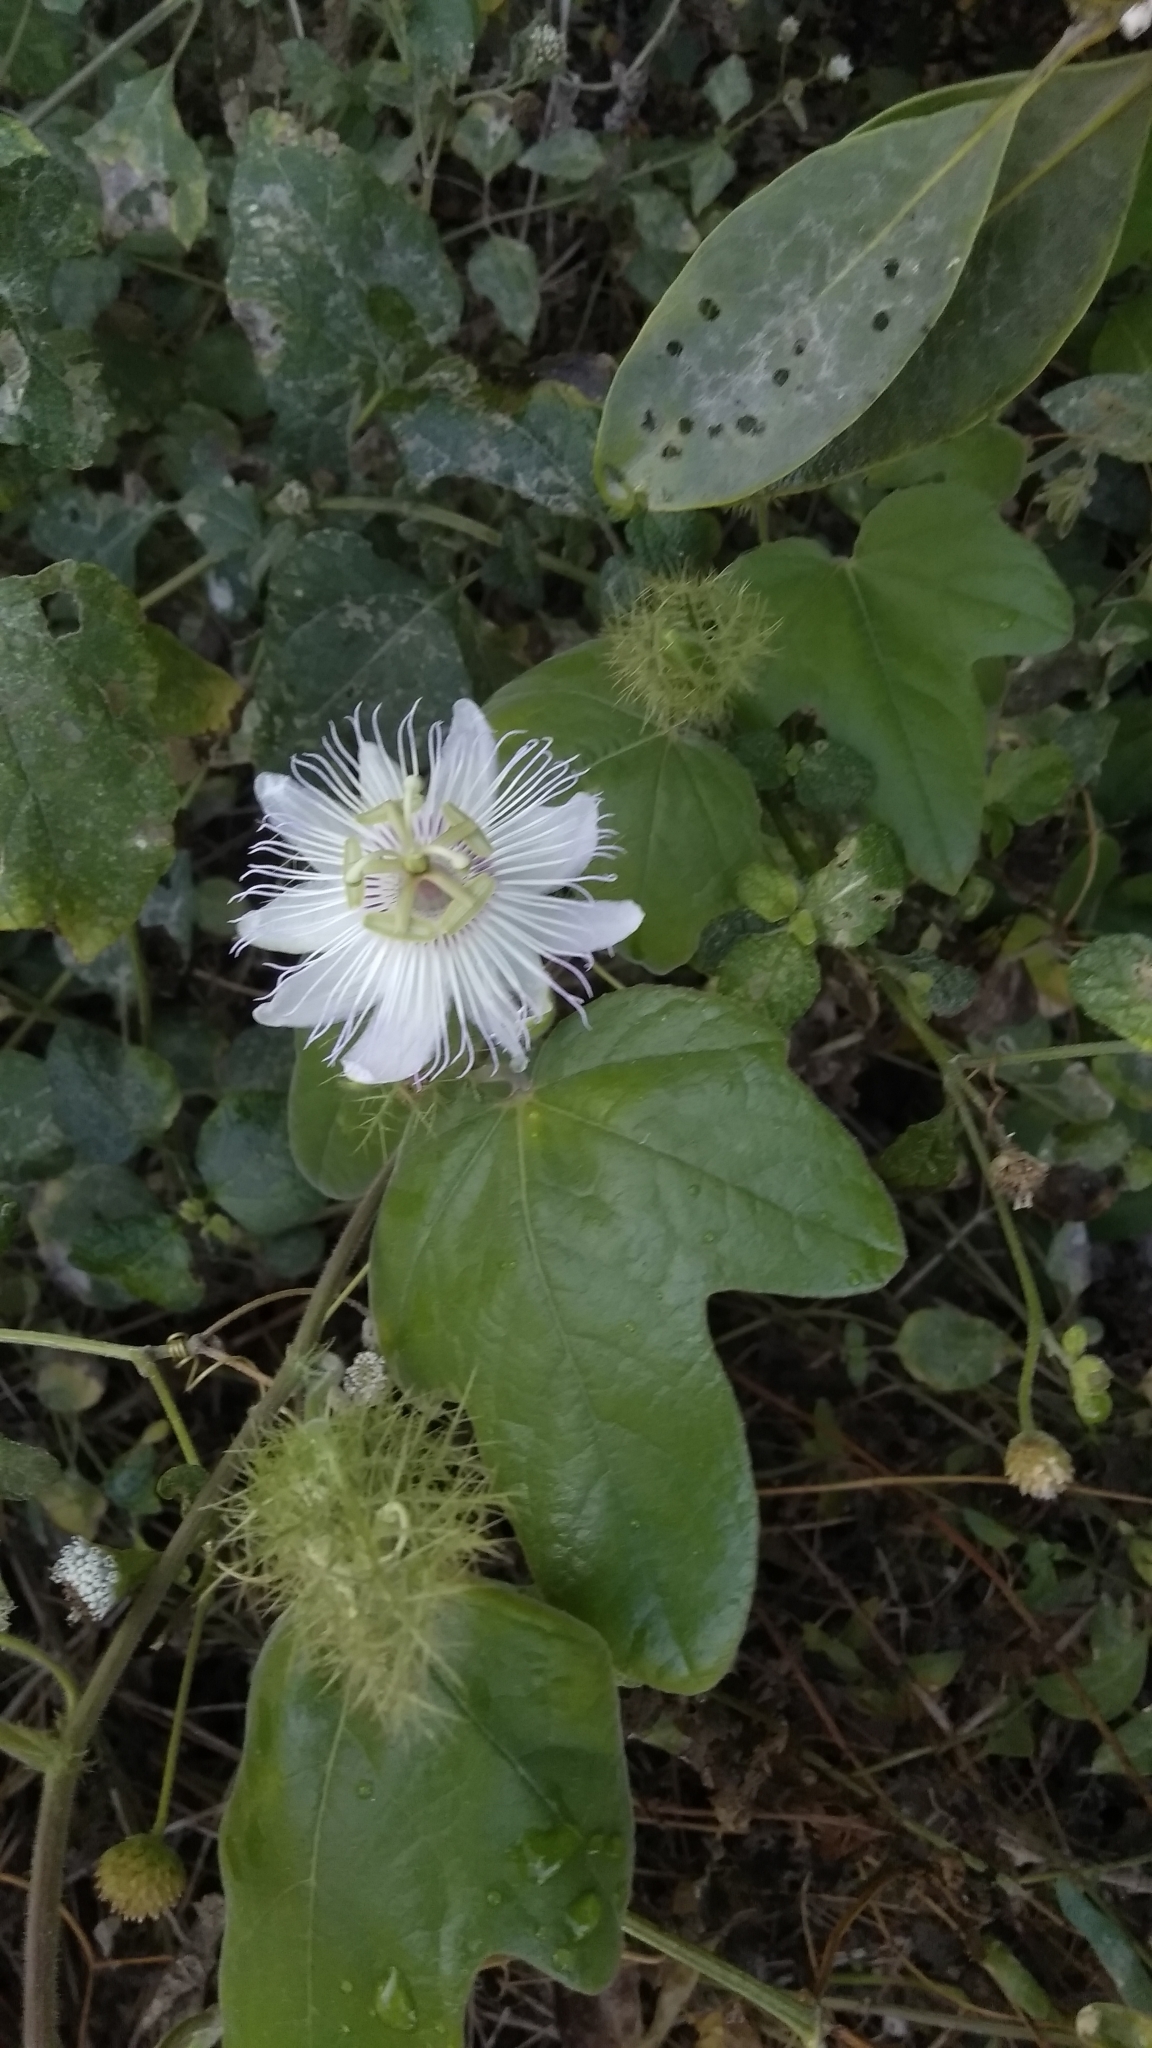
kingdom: Plantae
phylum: Tracheophyta
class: Magnoliopsida
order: Malpighiales
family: Passifloraceae
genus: Passiflora
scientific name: Passiflora foetida
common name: Fetid passionflower
